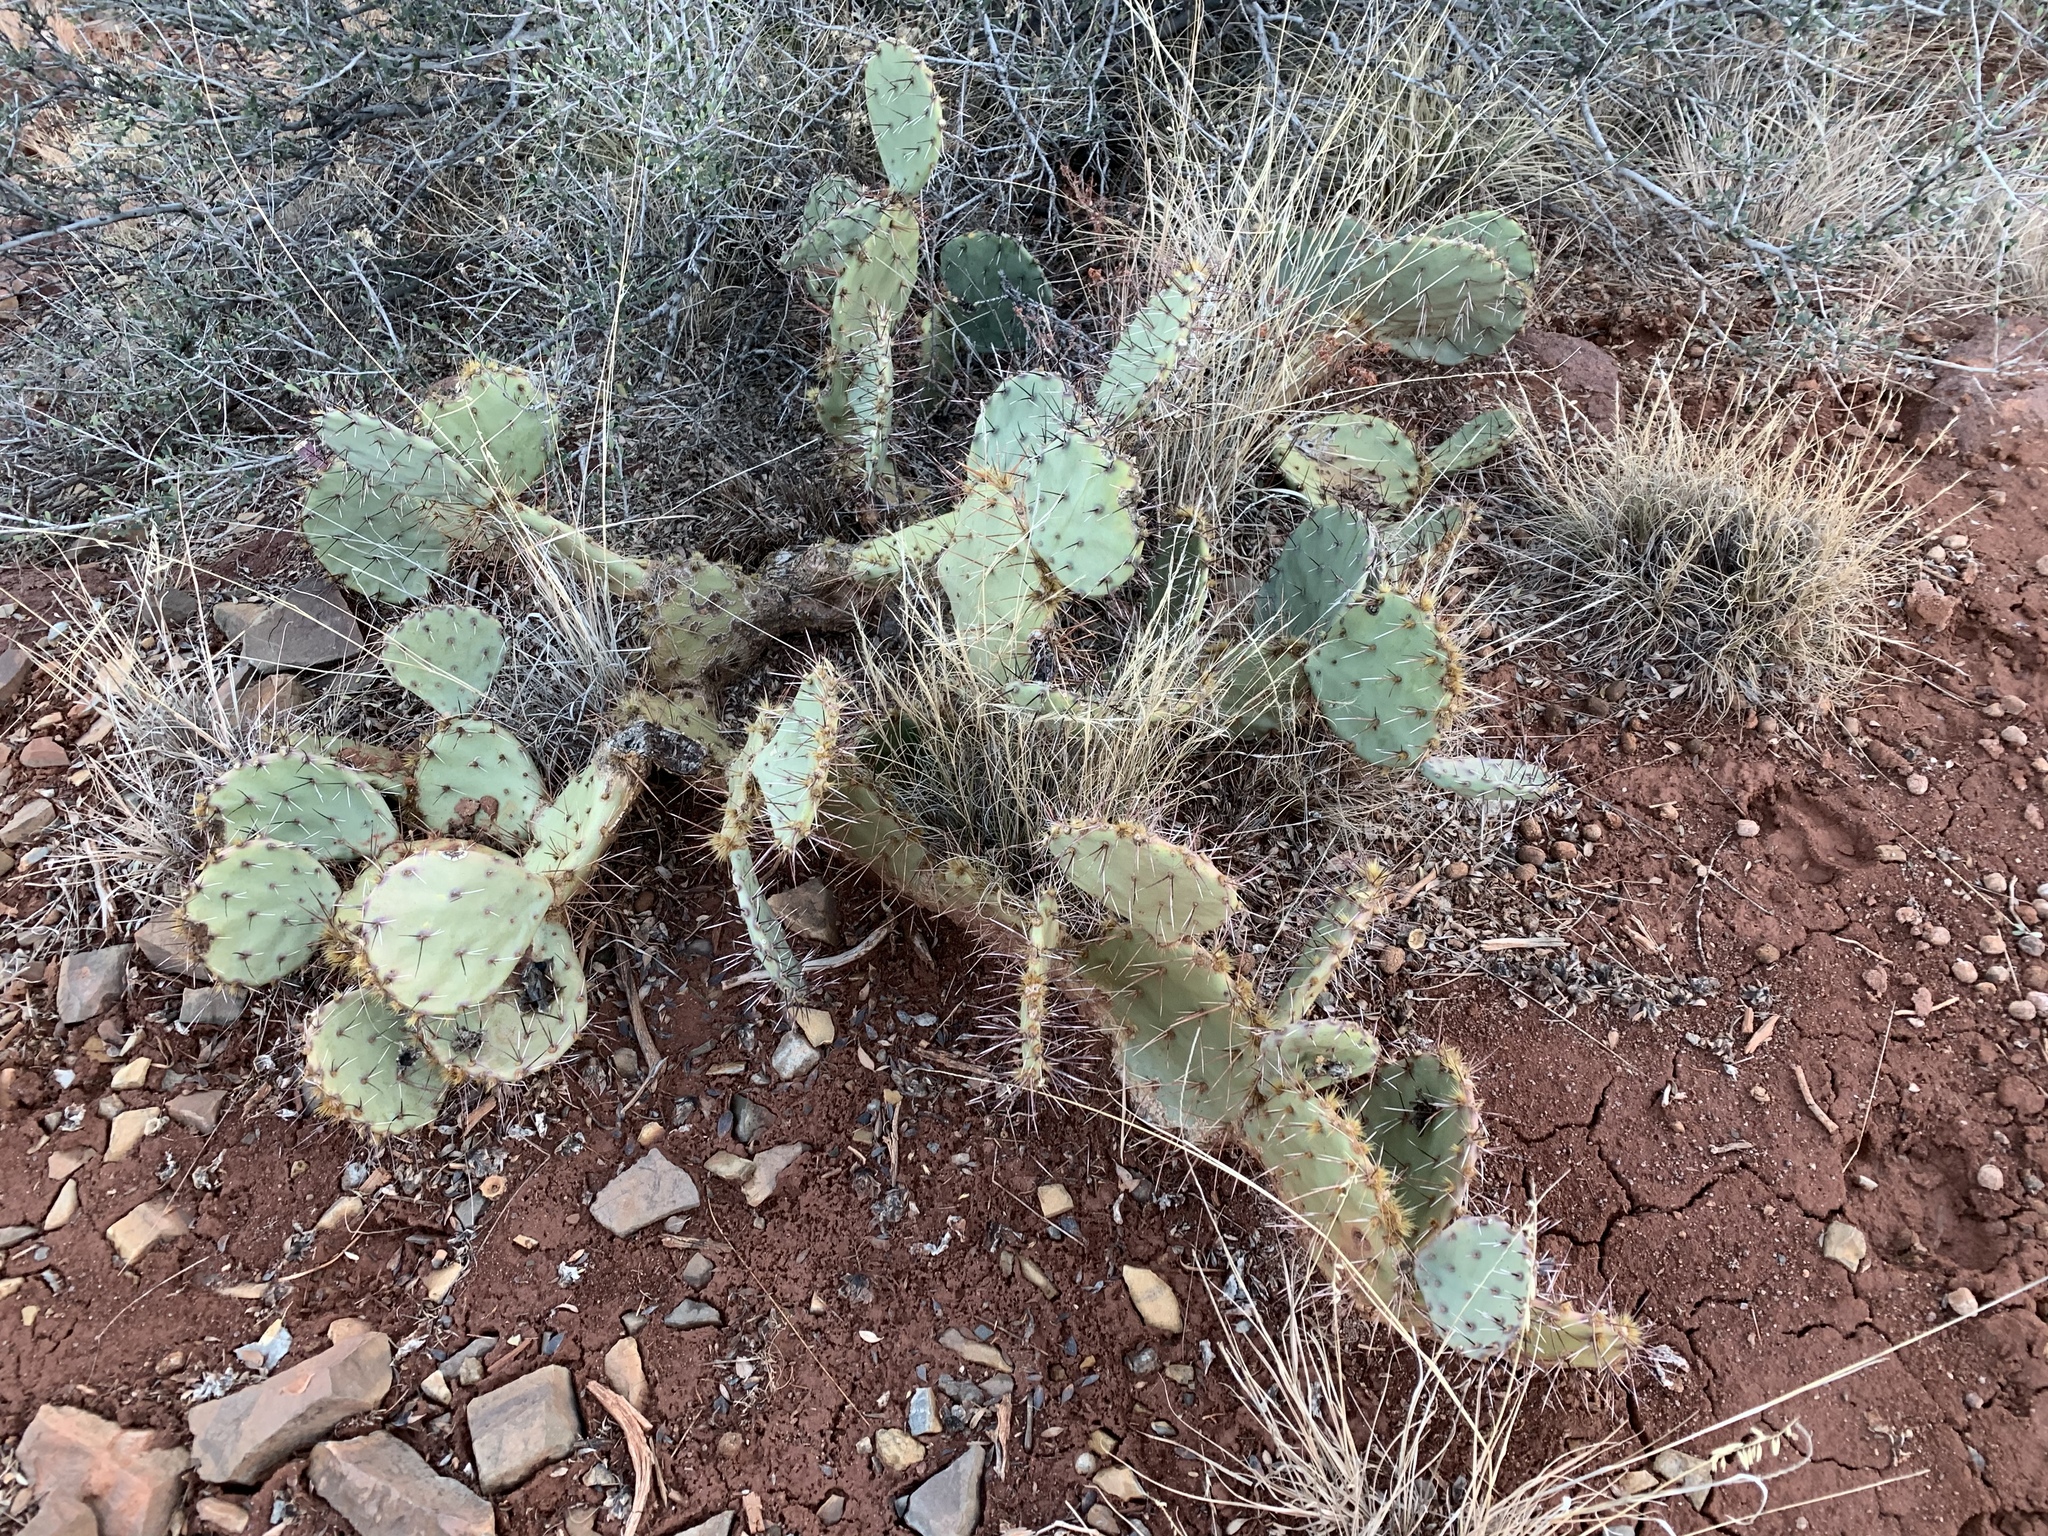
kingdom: Plantae
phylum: Tracheophyta
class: Magnoliopsida
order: Caryophyllales
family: Cactaceae
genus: Opuntia
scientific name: Opuntia phaeacantha
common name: New mexico prickly-pear
